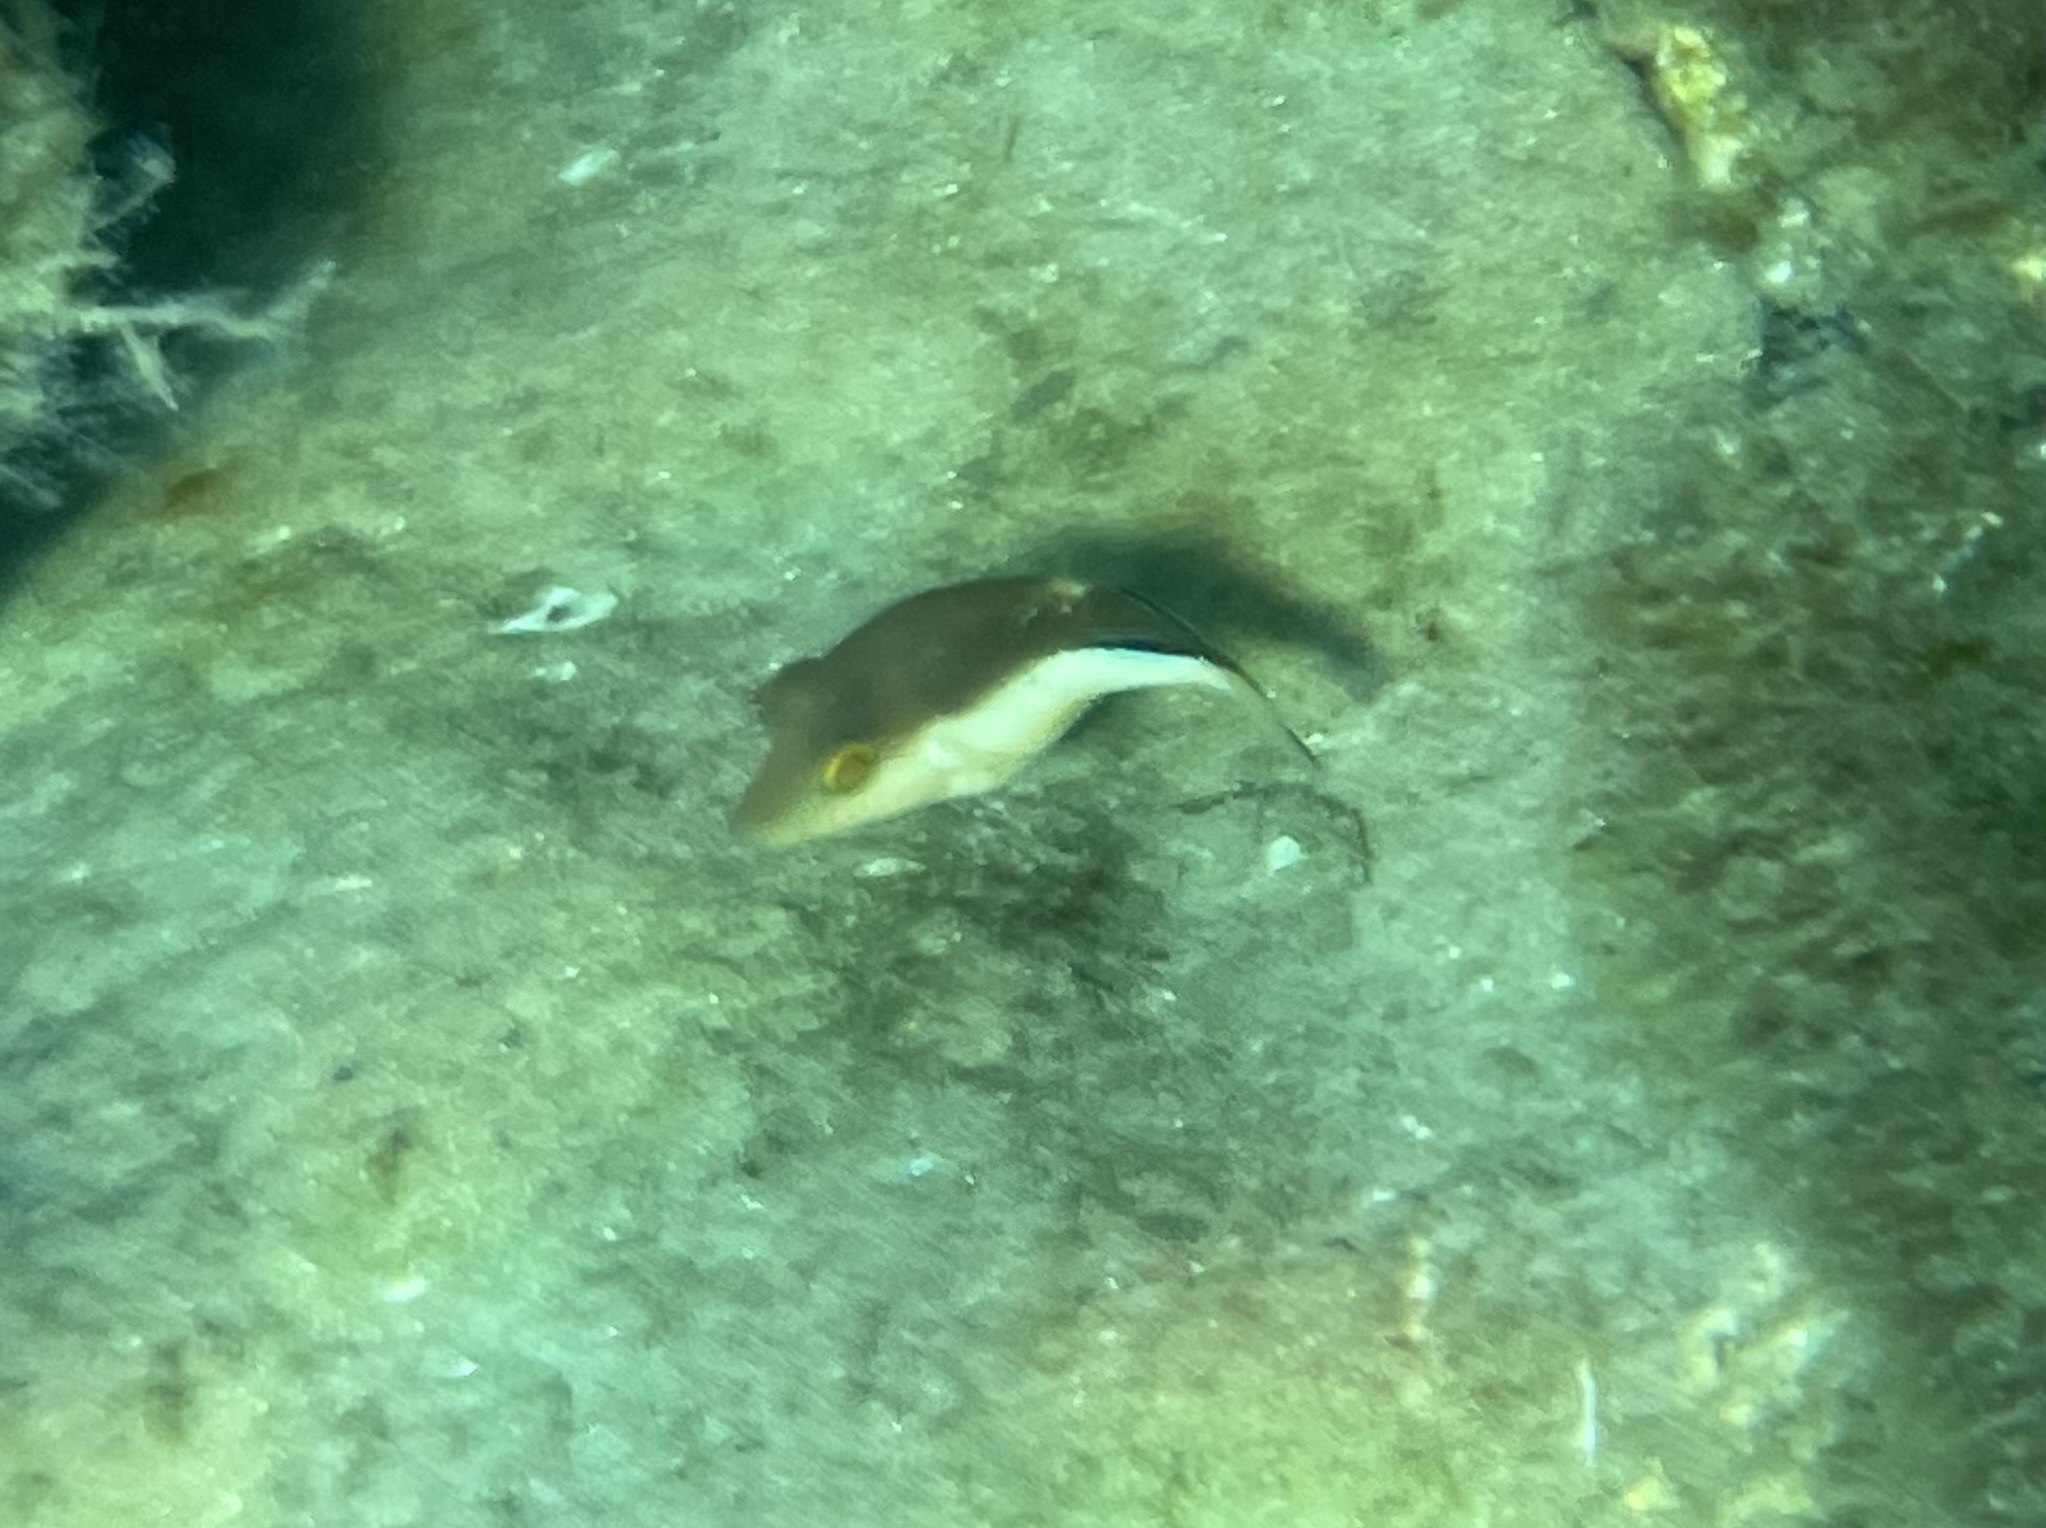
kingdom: Animalia
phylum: Chordata
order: Tetraodontiformes
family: Tetraodontidae
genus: Canthigaster
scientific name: Canthigaster rostrata
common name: Caribbean sharpnose-puffer
